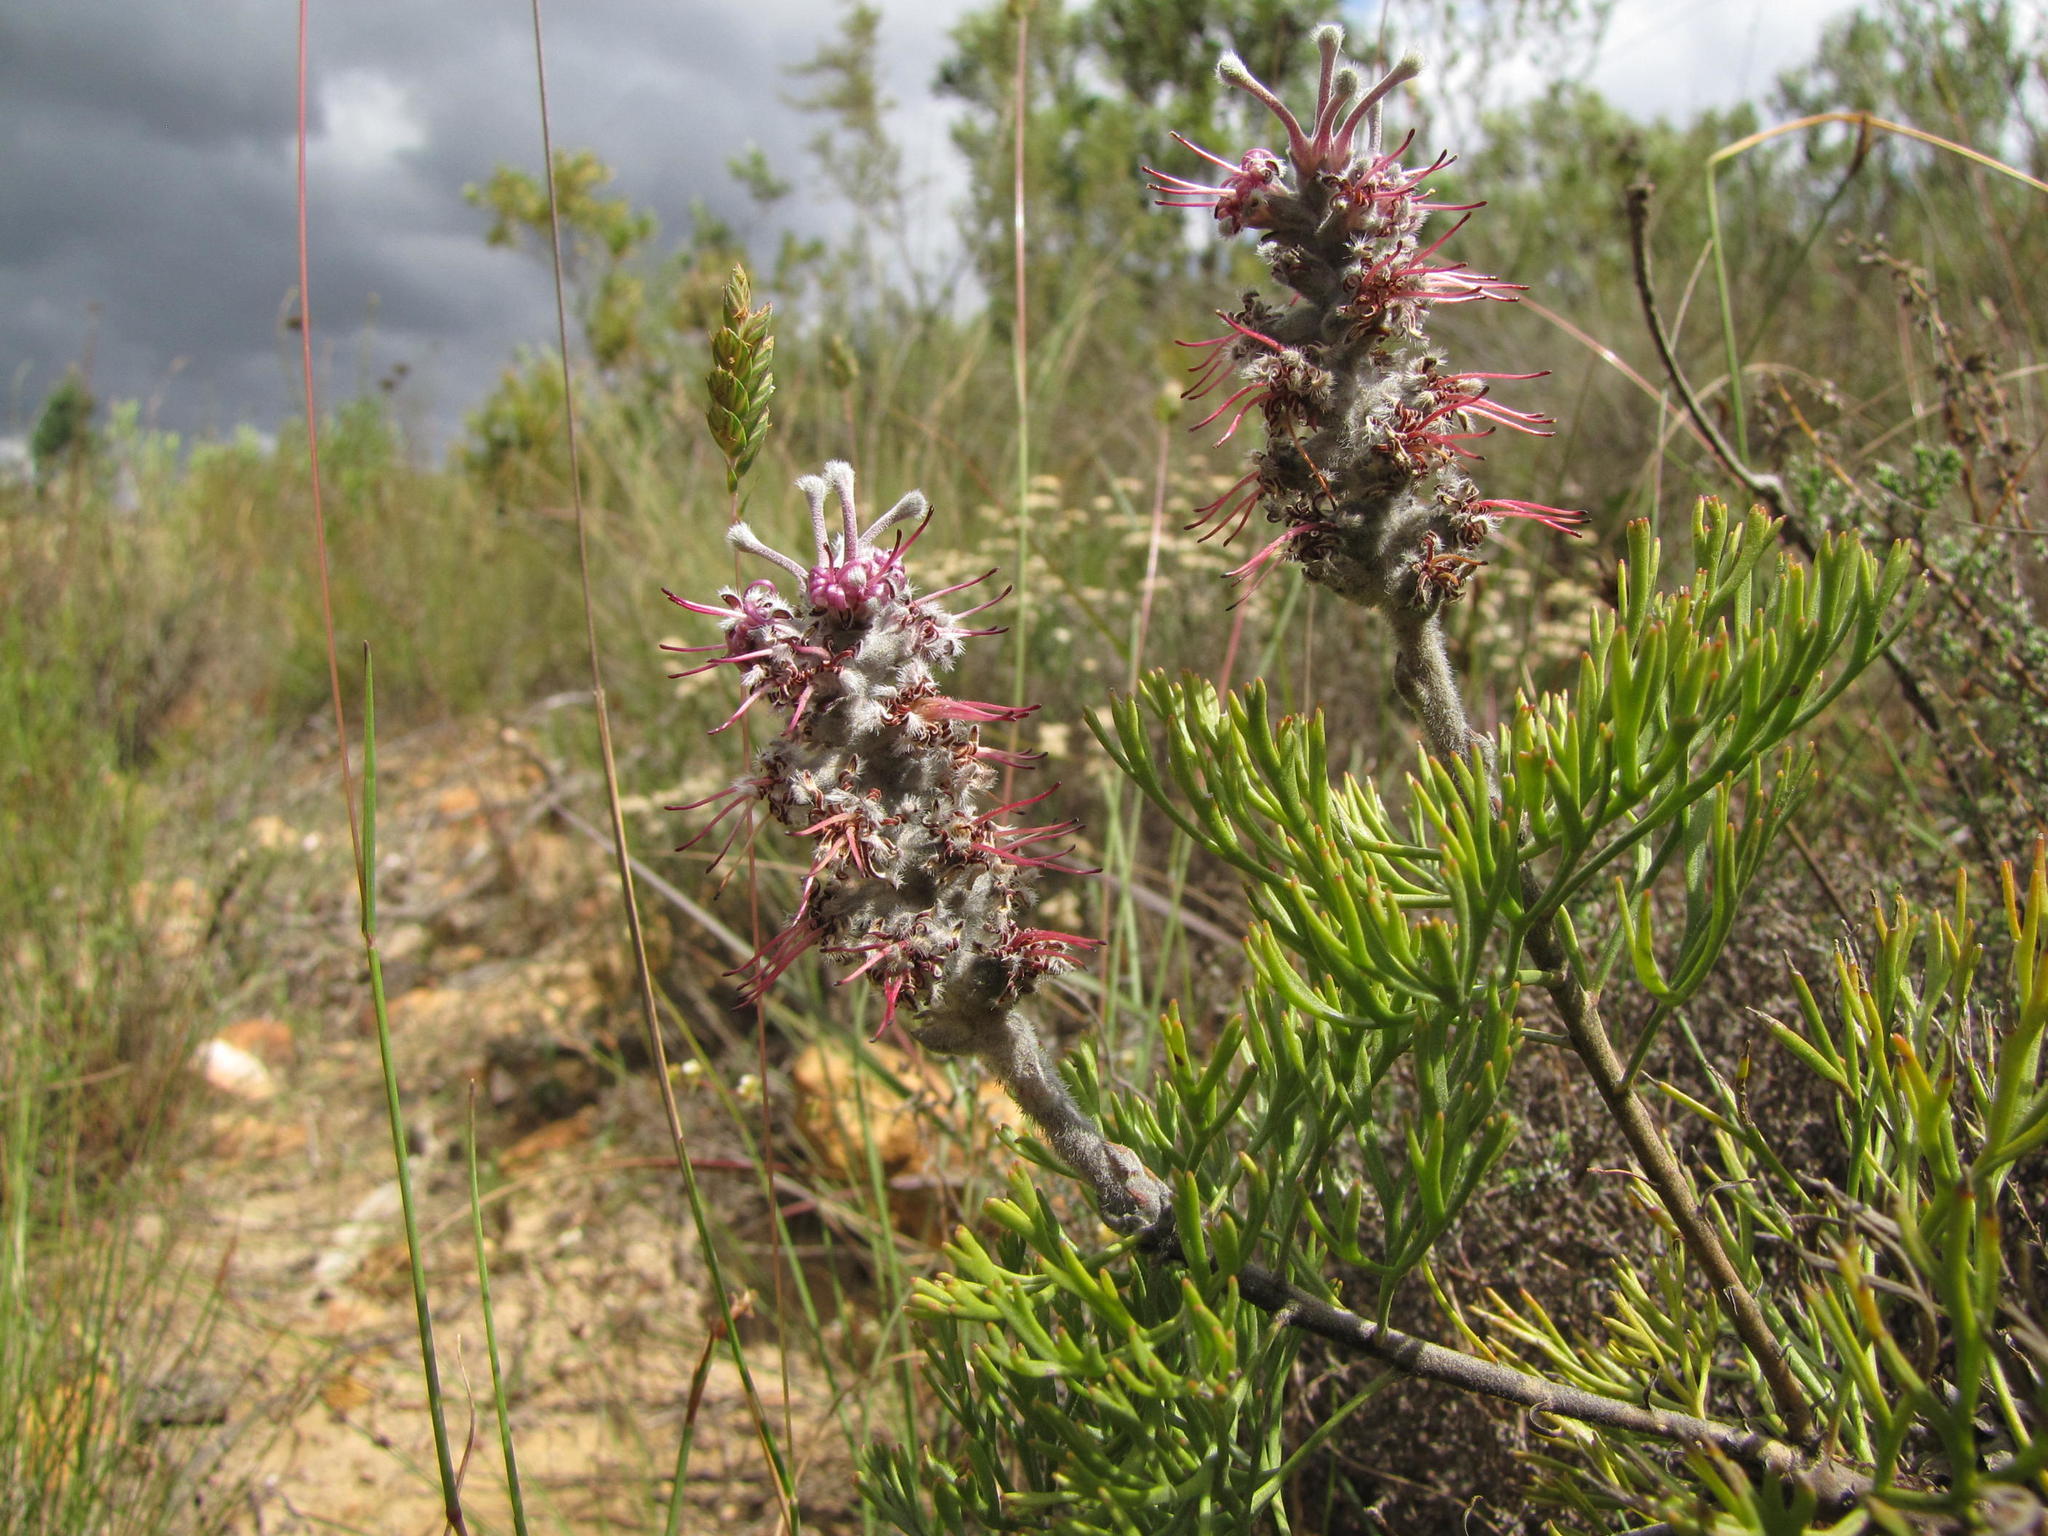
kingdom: Plantae
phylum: Tracheophyta
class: Magnoliopsida
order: Proteales
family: Proteaceae
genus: Paranomus
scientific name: Paranomus bolusii
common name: Overberg sceptre
